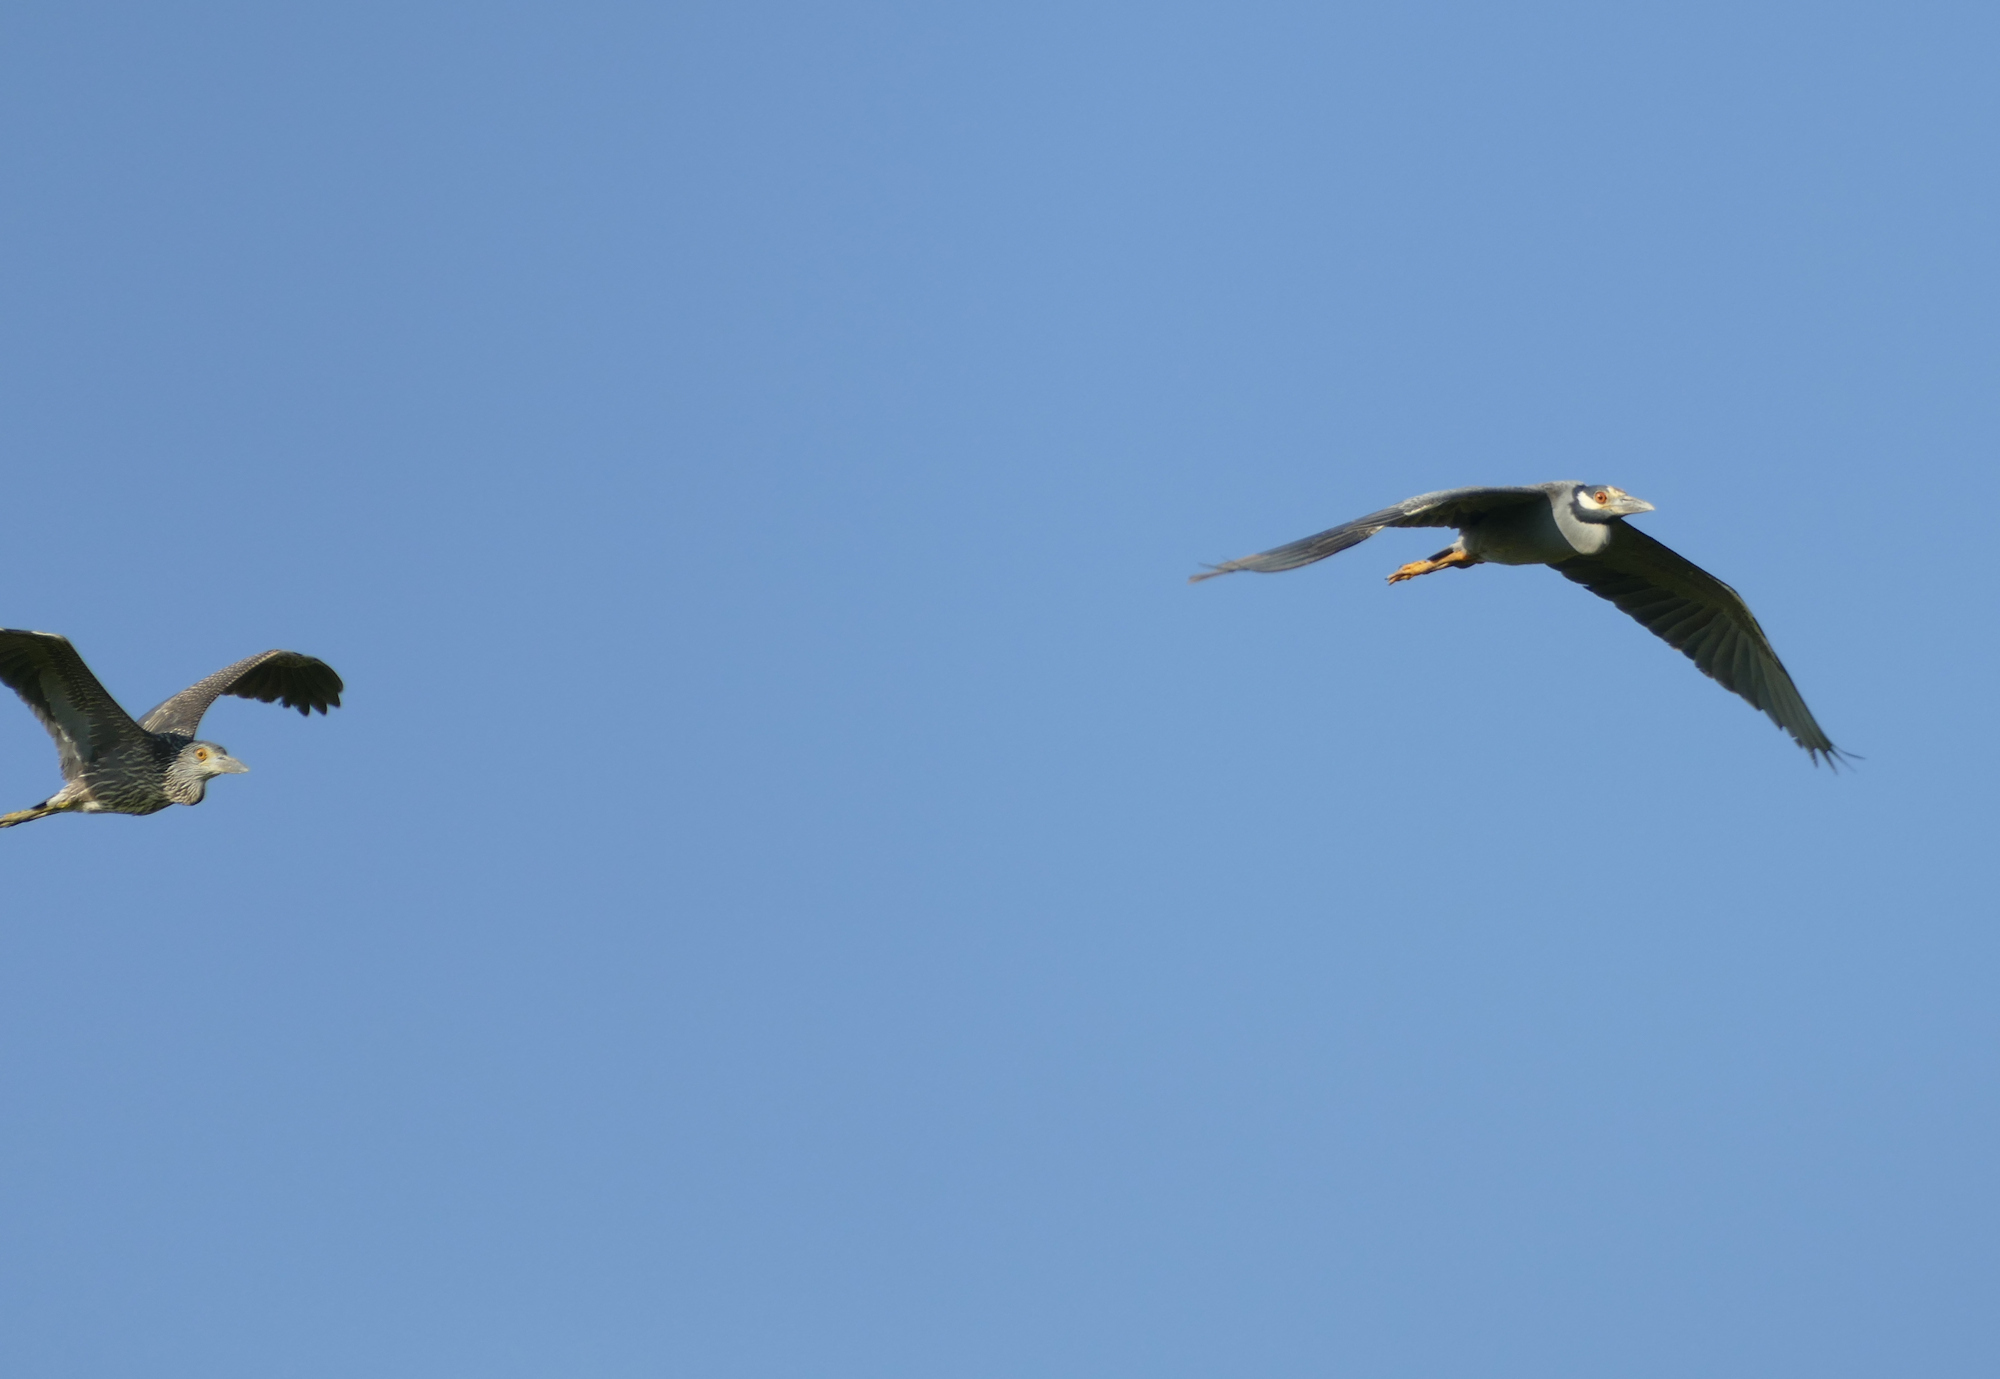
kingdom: Animalia
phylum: Chordata
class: Aves
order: Pelecaniformes
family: Ardeidae
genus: Nyctanassa
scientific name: Nyctanassa violacea
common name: Yellow-crowned night heron
